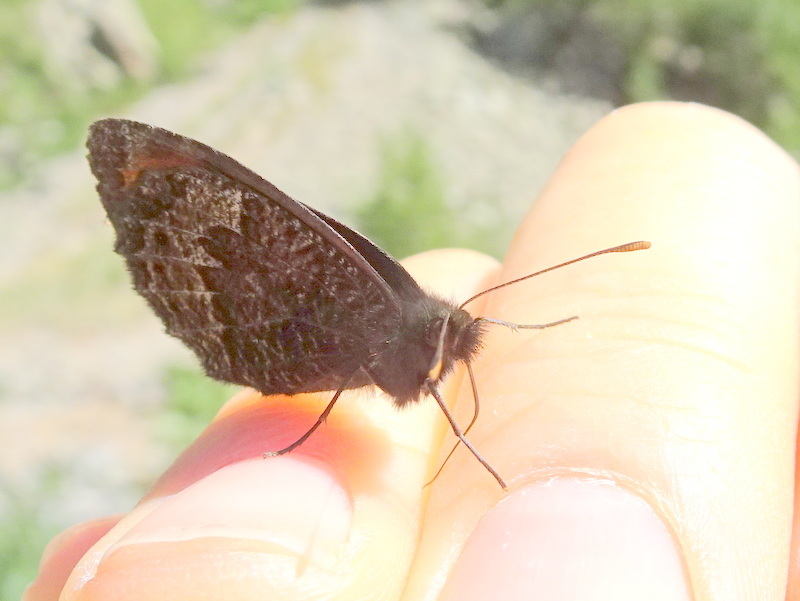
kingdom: Animalia
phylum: Arthropoda
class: Insecta
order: Lepidoptera
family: Nymphalidae
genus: Erebia
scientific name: Erebia montanus
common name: Marbled ringlet
